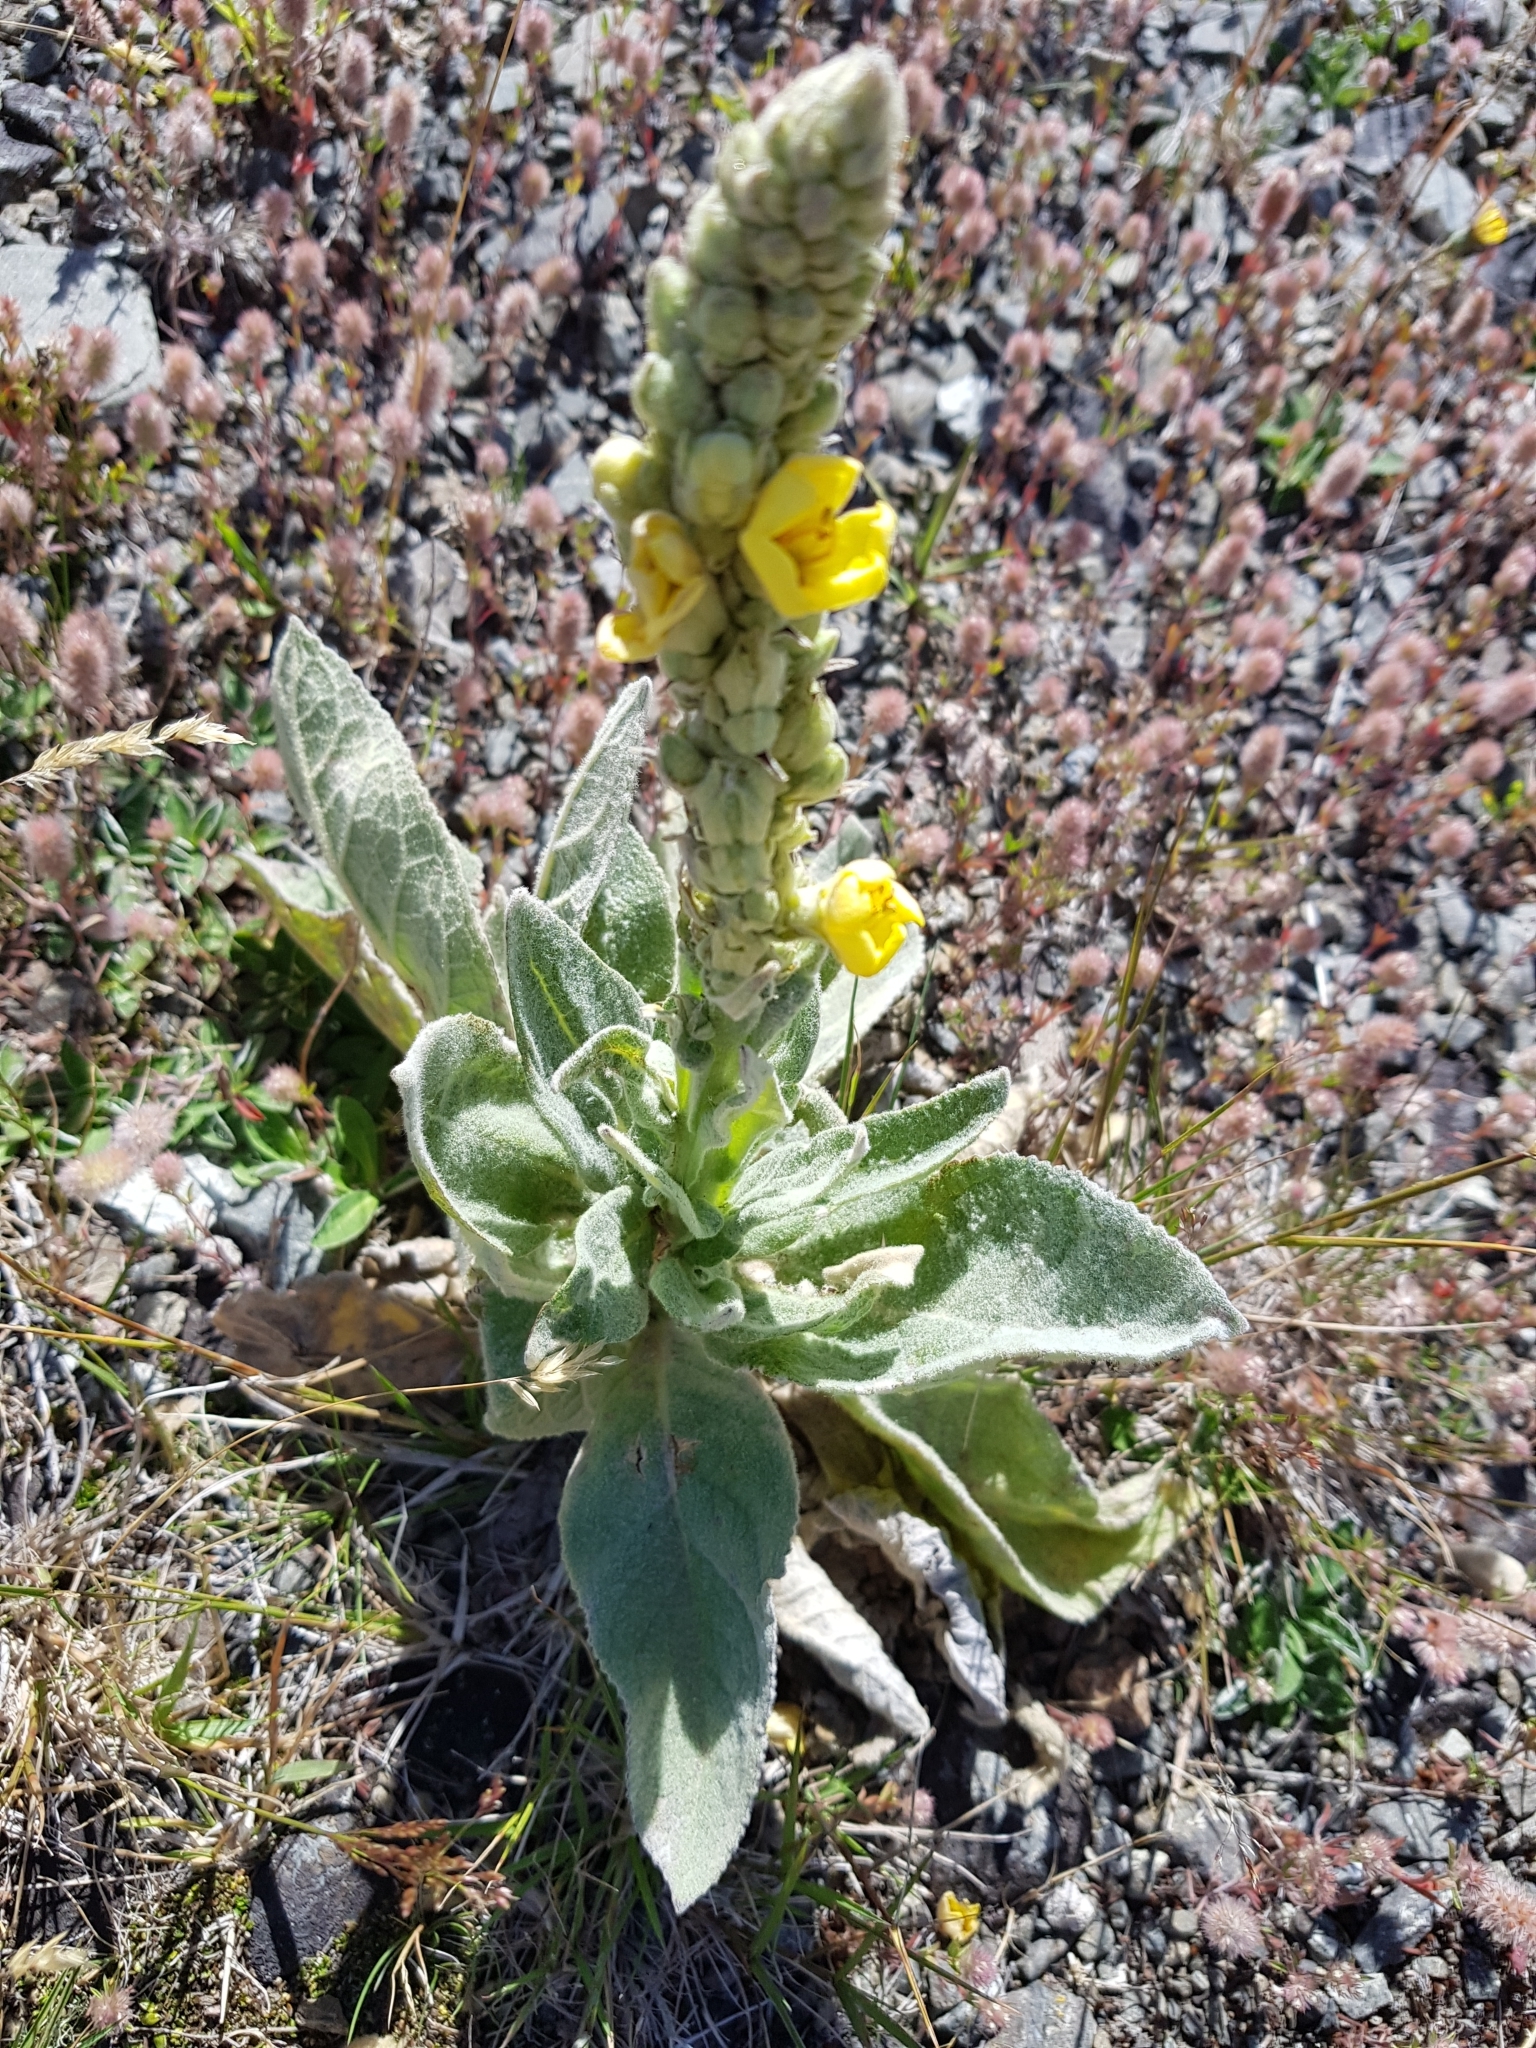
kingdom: Plantae
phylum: Tracheophyta
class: Magnoliopsida
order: Lamiales
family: Scrophulariaceae
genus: Verbascum
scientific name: Verbascum thapsus
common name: Common mullein
